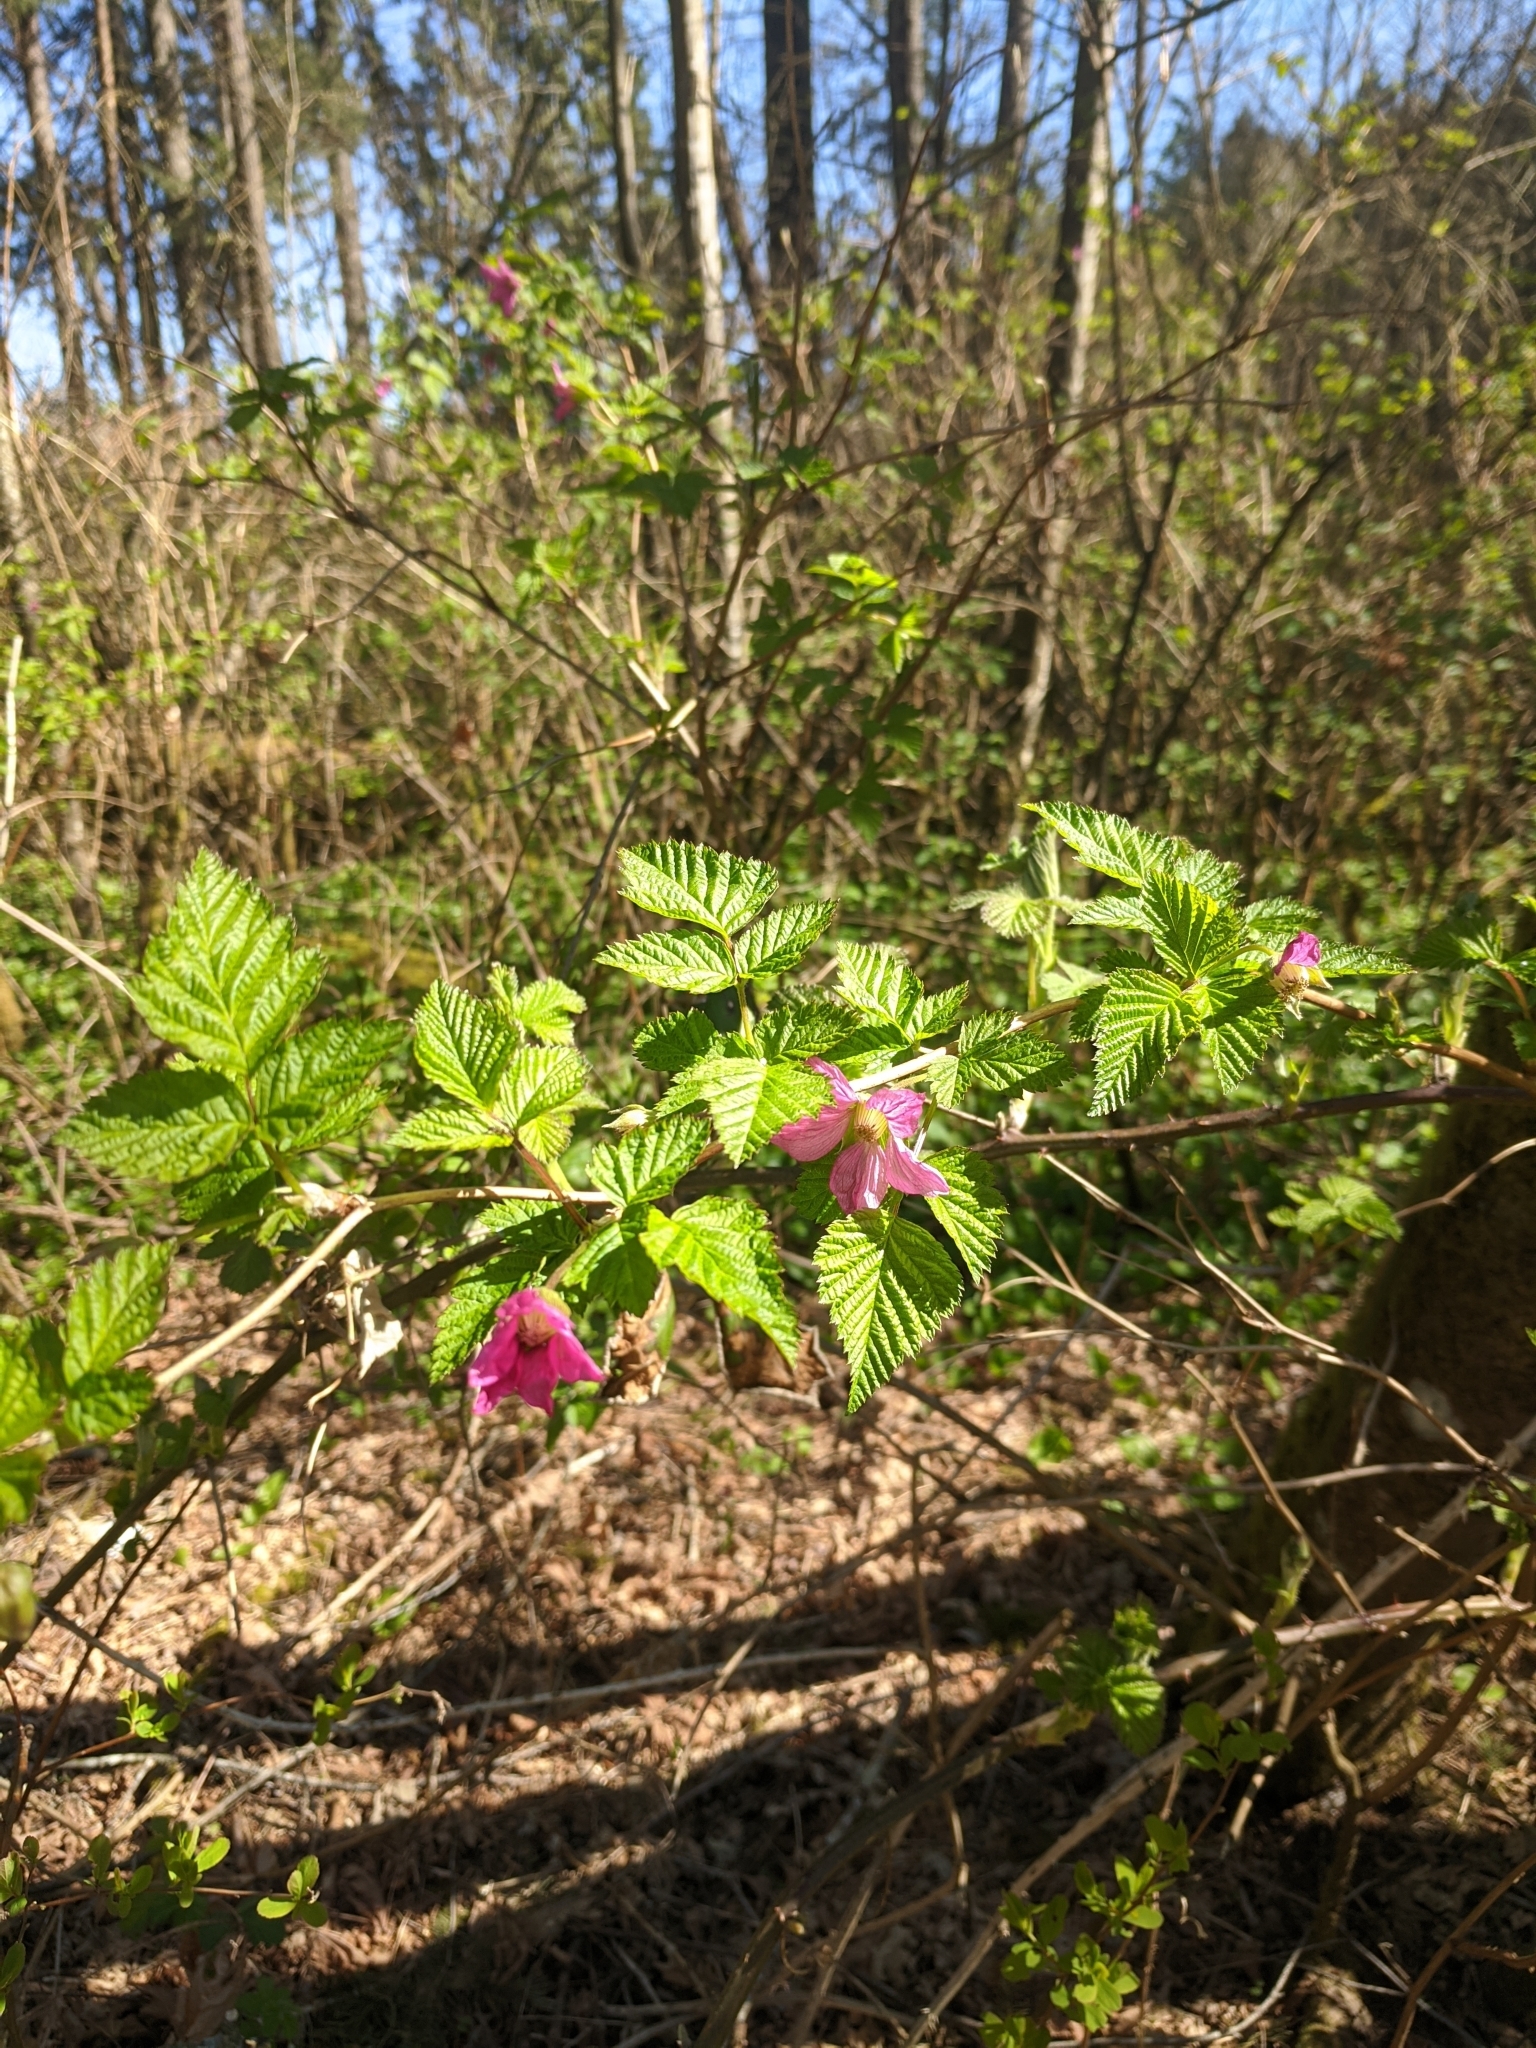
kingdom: Plantae
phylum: Tracheophyta
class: Magnoliopsida
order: Rosales
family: Rosaceae
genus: Rubus
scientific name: Rubus spectabilis
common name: Salmonberry
